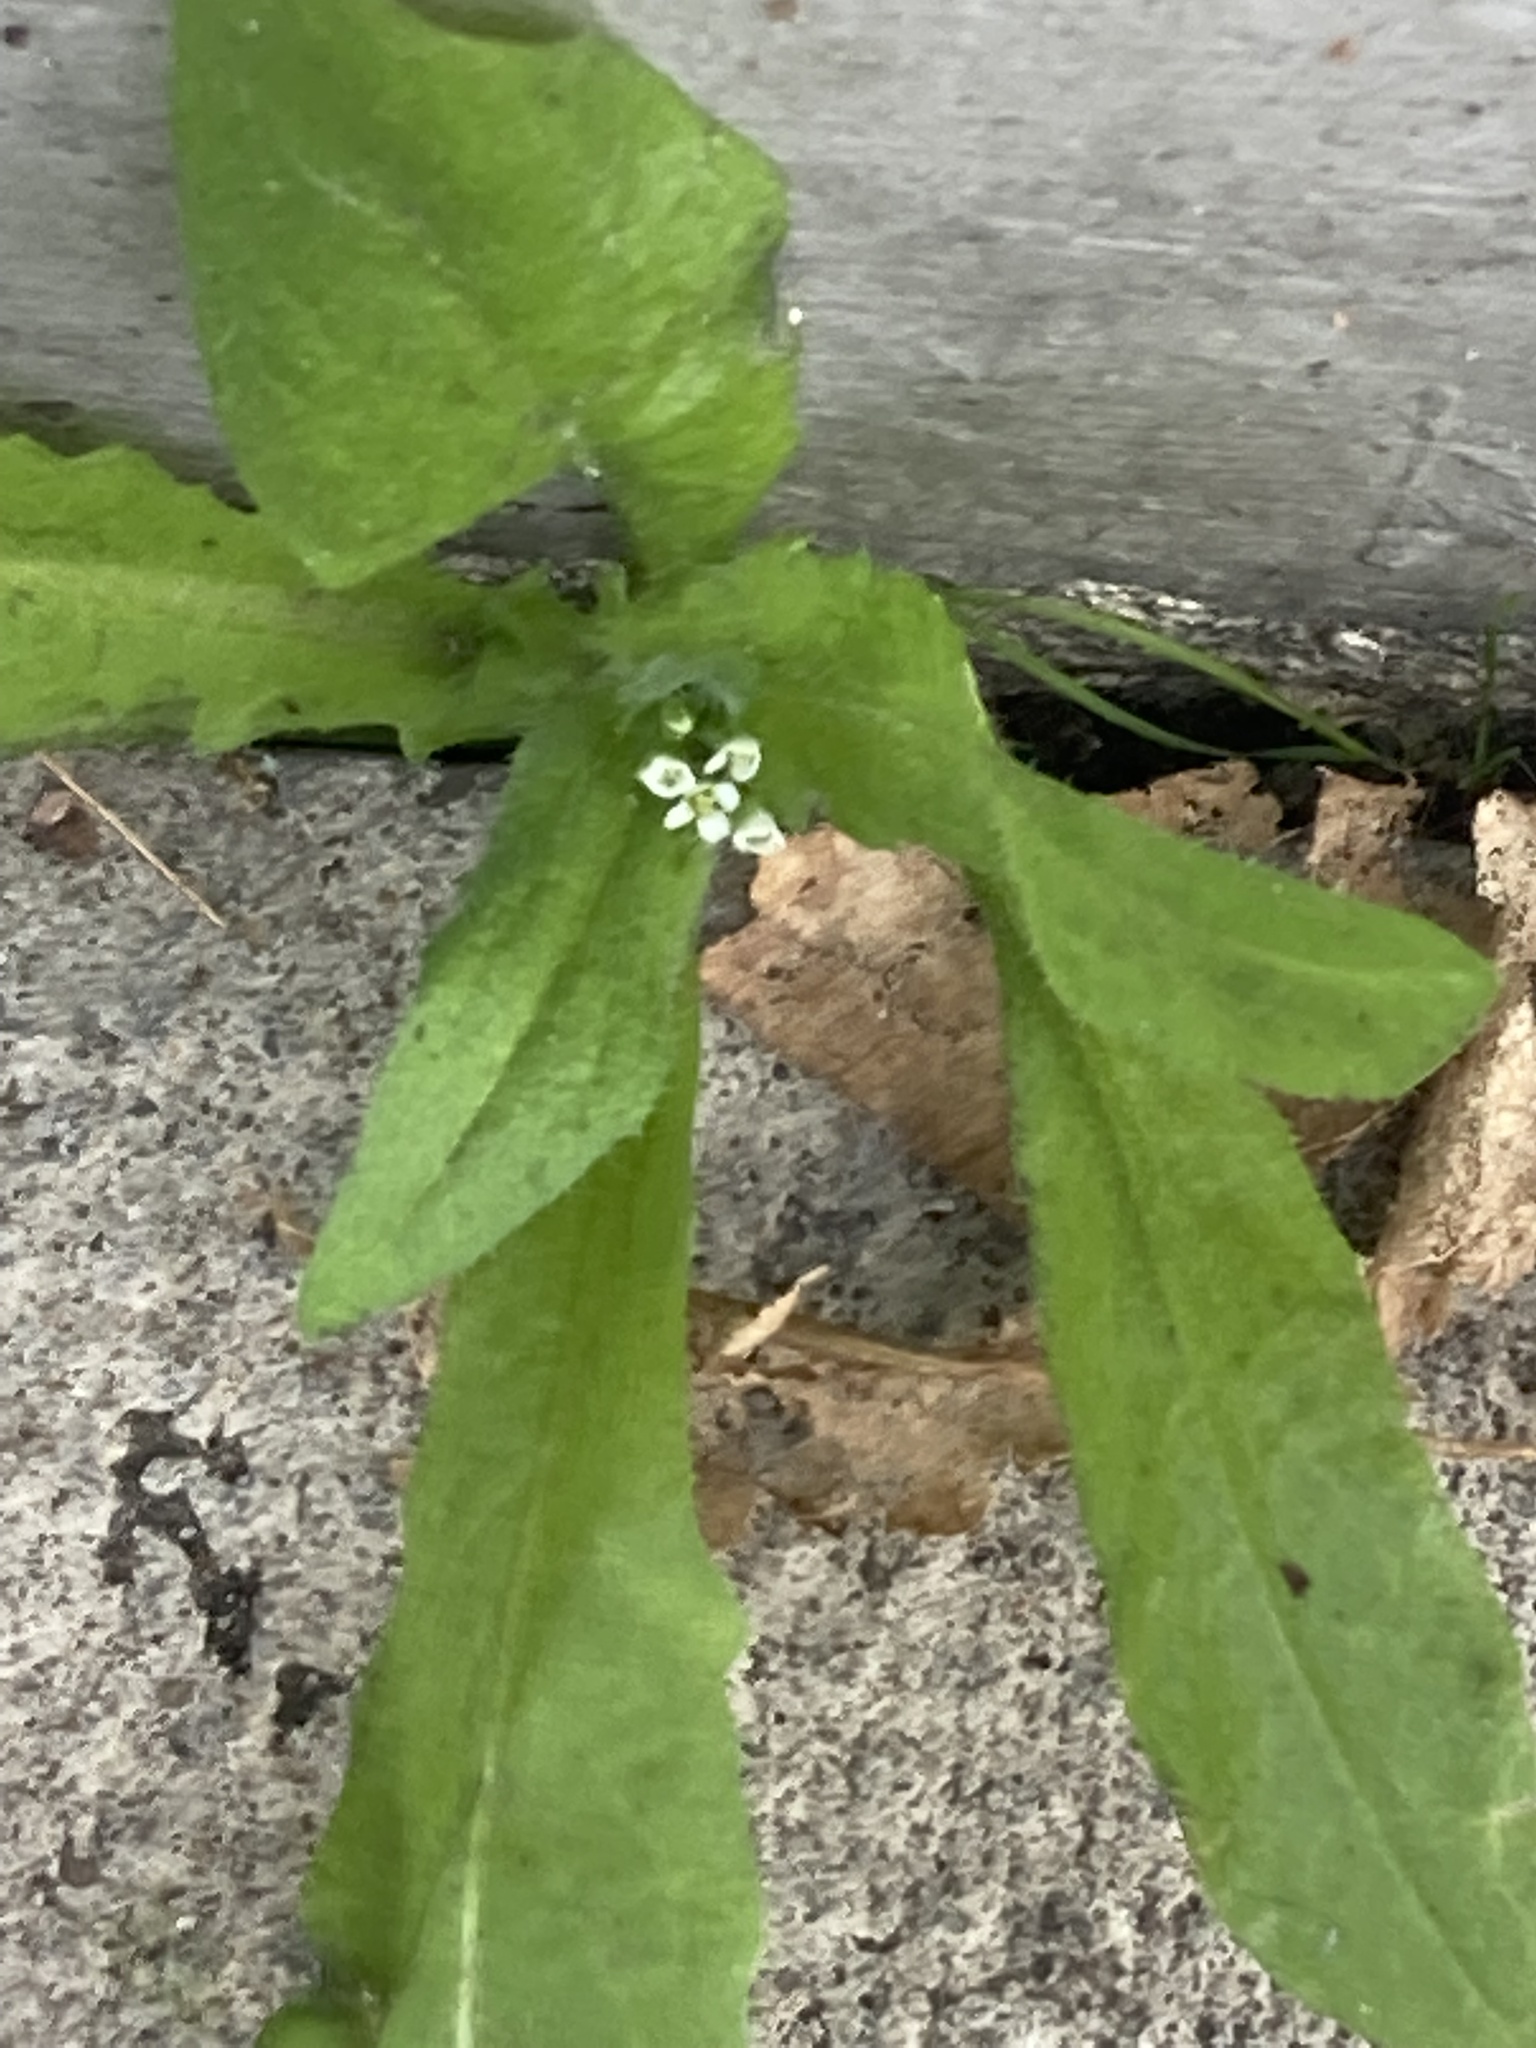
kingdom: Plantae
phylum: Tracheophyta
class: Magnoliopsida
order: Brassicales
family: Brassicaceae
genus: Capsella
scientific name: Capsella bursa-pastoris
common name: Shepherd's purse
